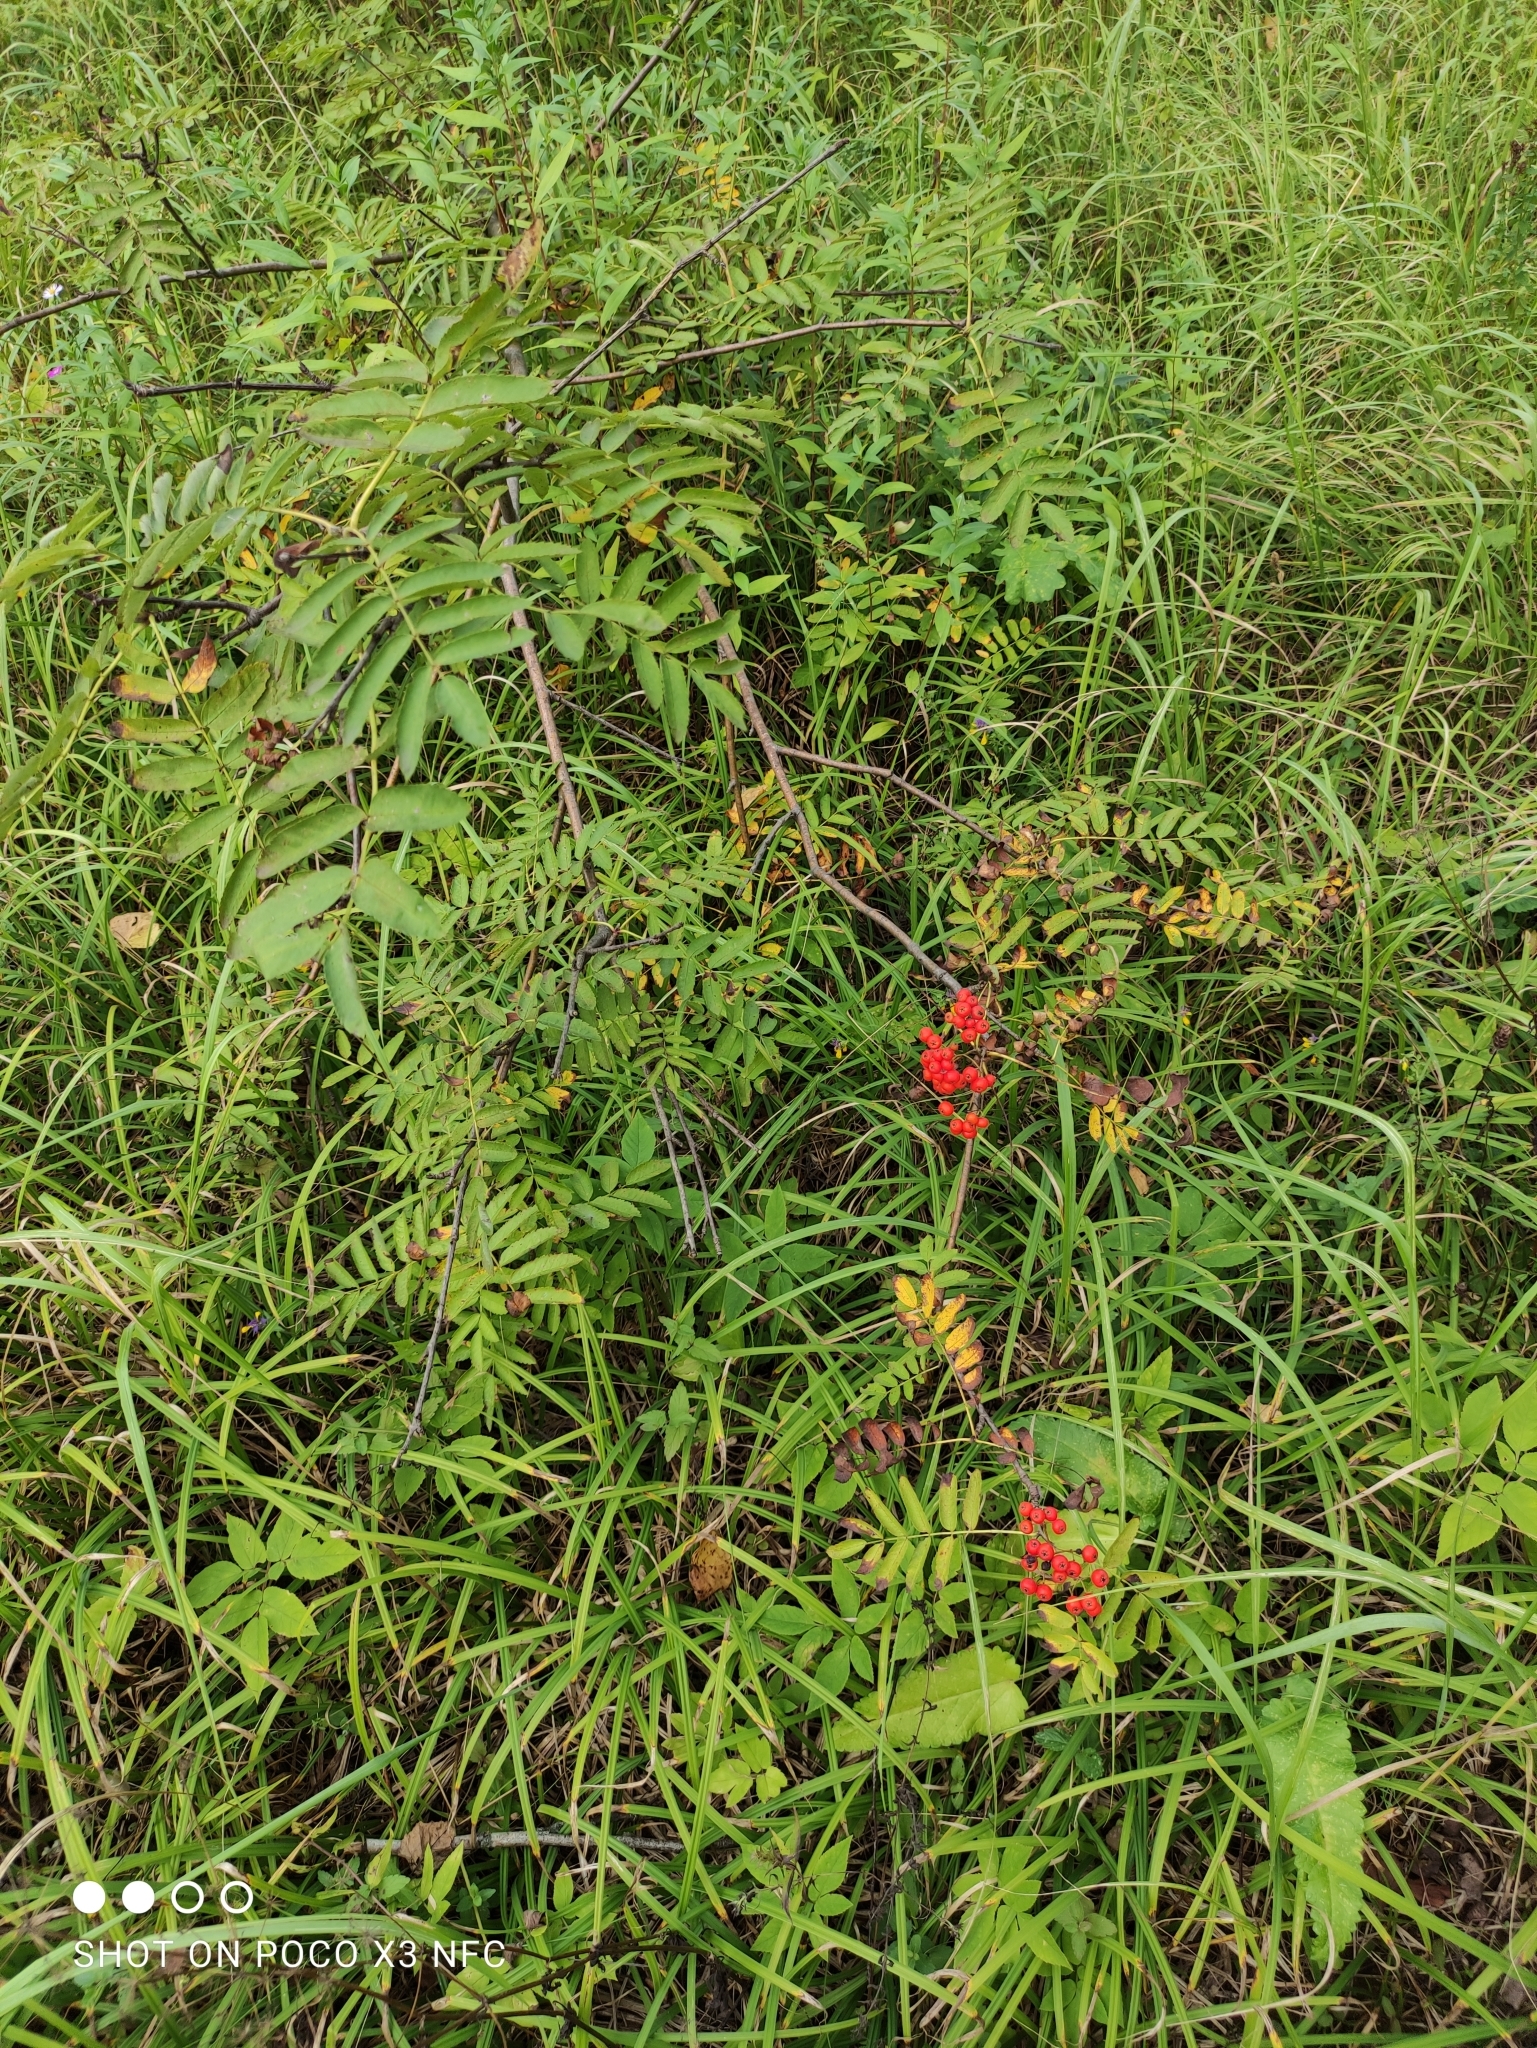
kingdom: Plantae
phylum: Tracheophyta
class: Magnoliopsida
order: Rosales
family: Rosaceae
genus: Sorbus
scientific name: Sorbus aucuparia
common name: Rowan
